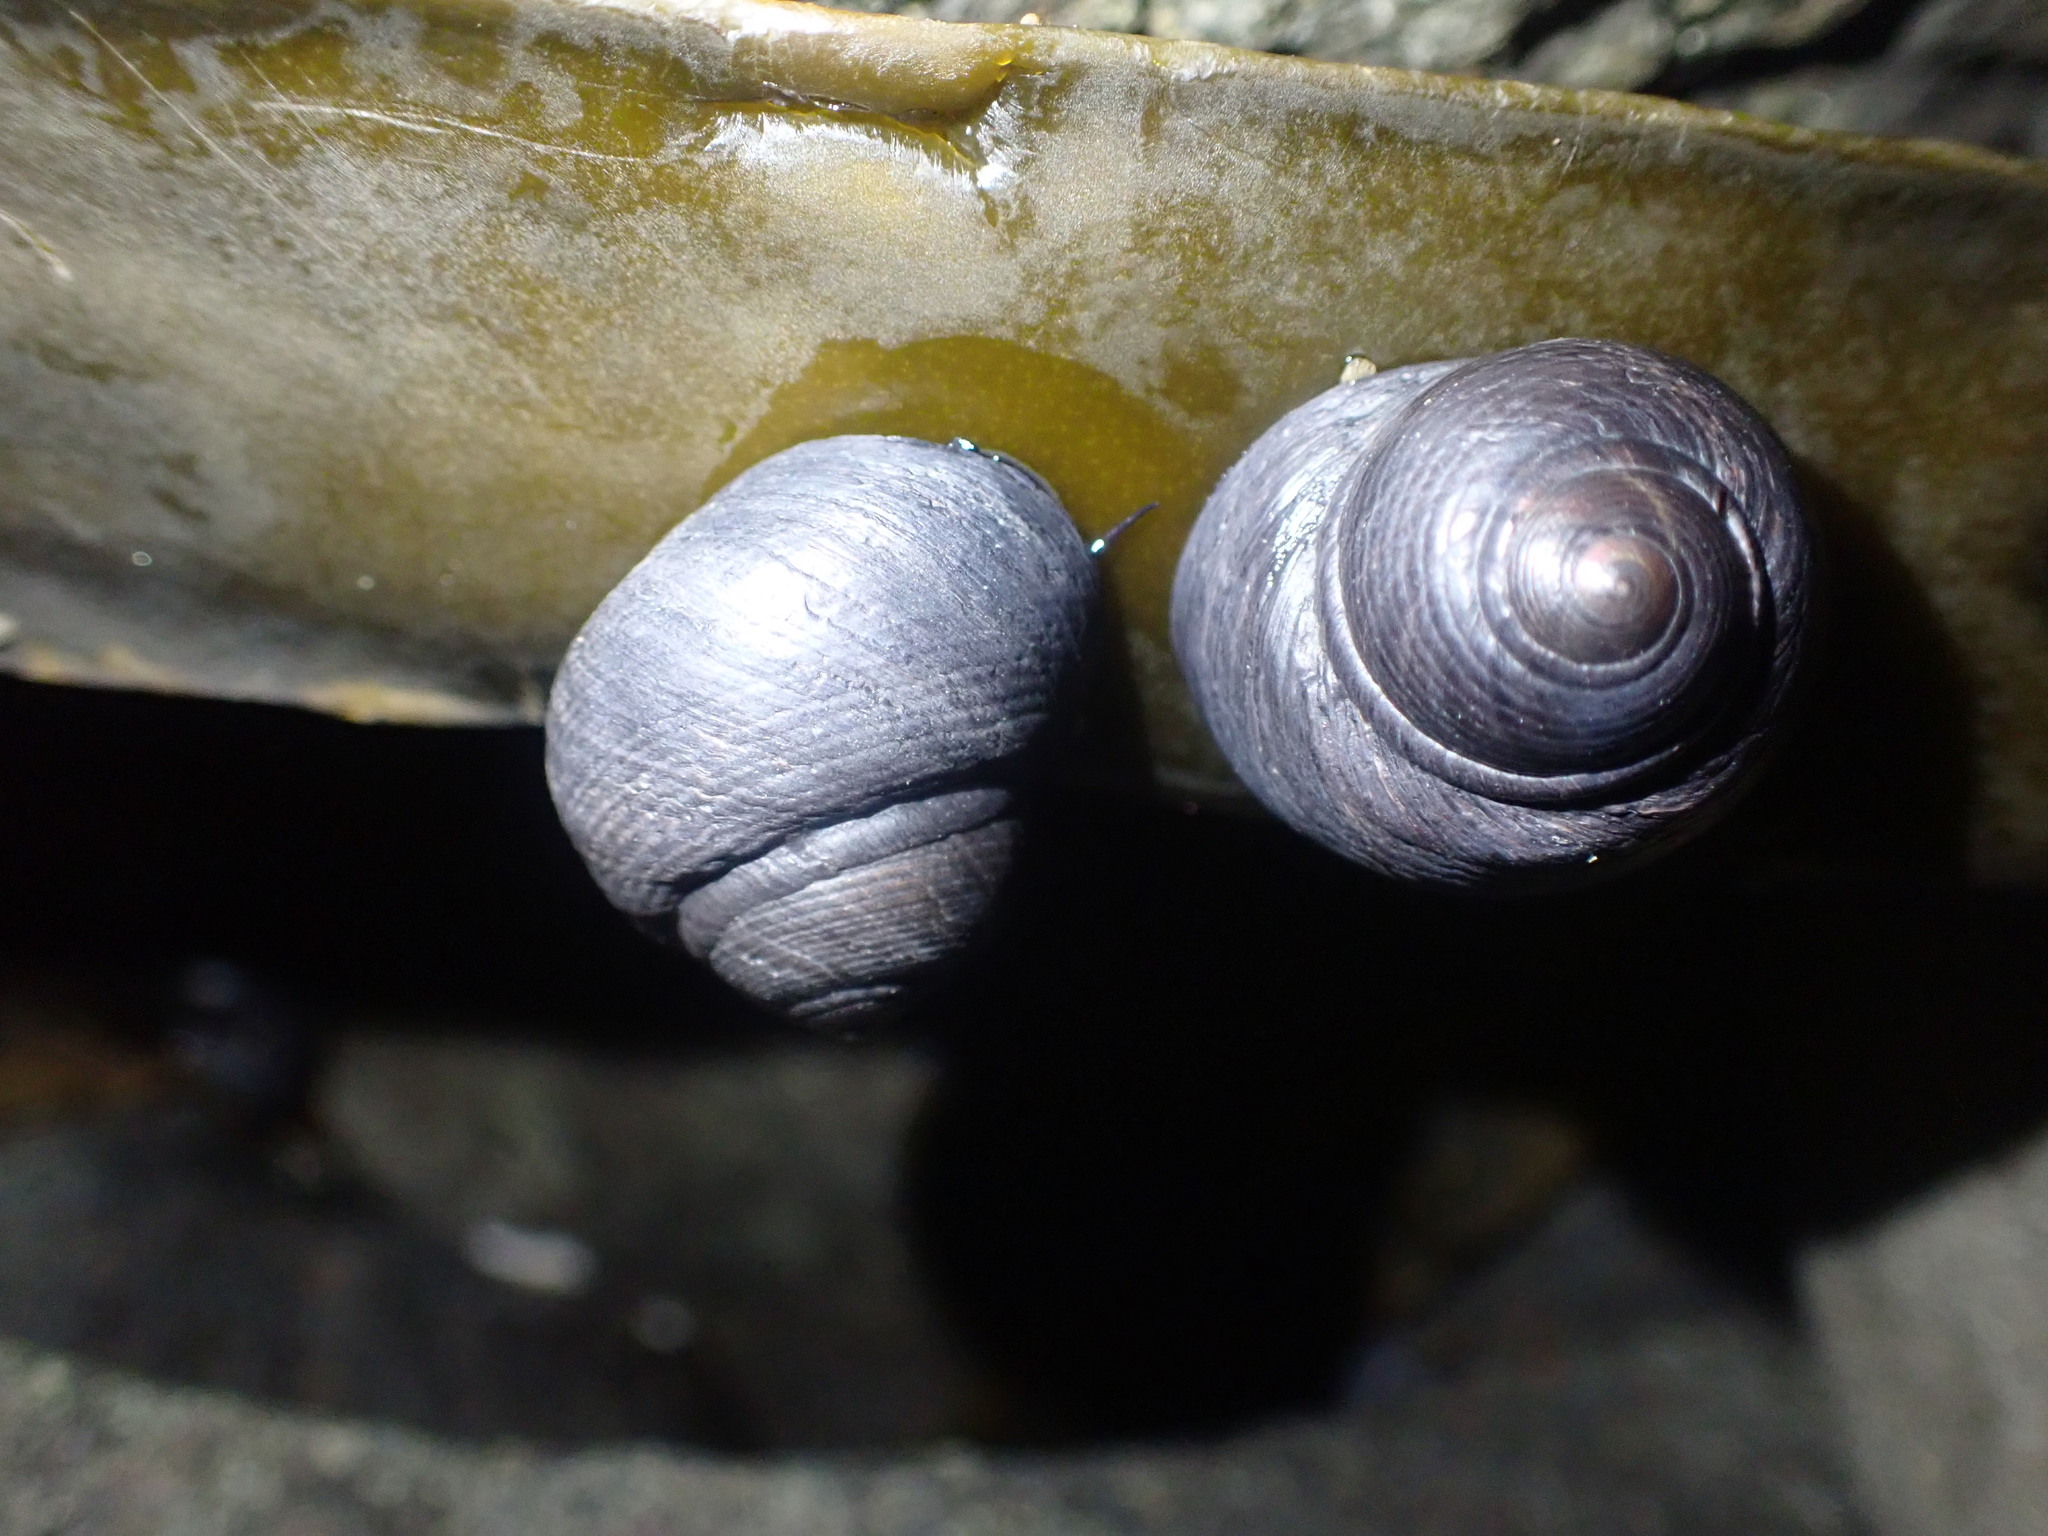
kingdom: Animalia
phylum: Mollusca
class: Gastropoda
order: Trochida
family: Trochidae
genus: Diloma
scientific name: Diloma nigerrimum
